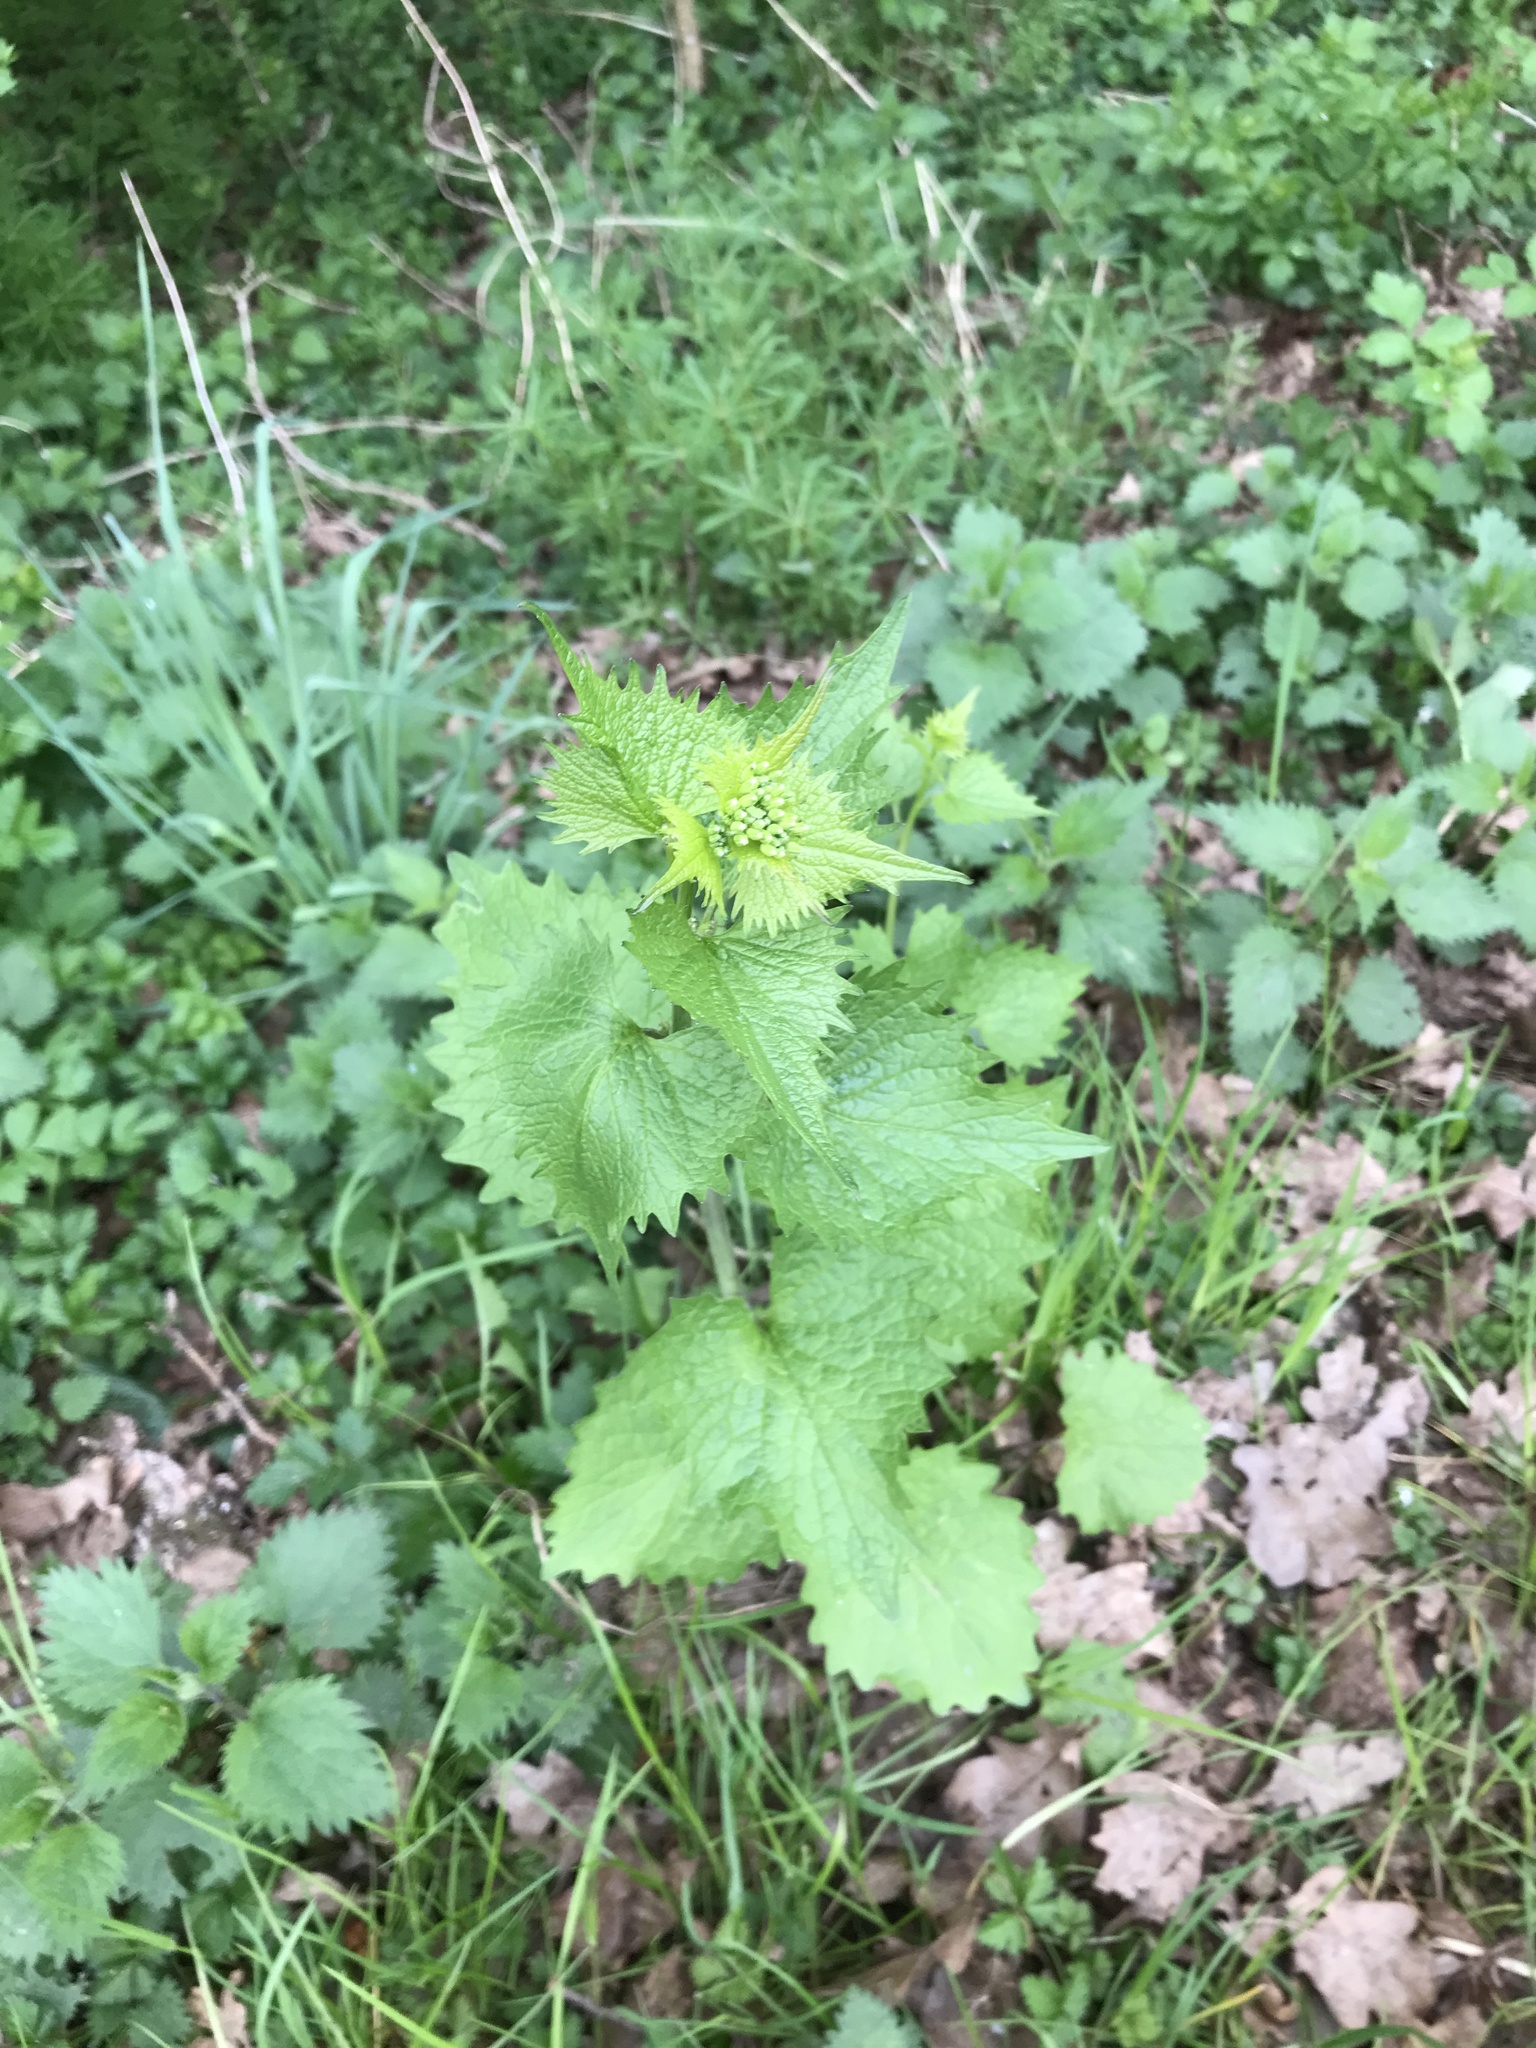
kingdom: Plantae
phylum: Tracheophyta
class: Magnoliopsida
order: Brassicales
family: Brassicaceae
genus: Alliaria
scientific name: Alliaria petiolata
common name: Garlic mustard
